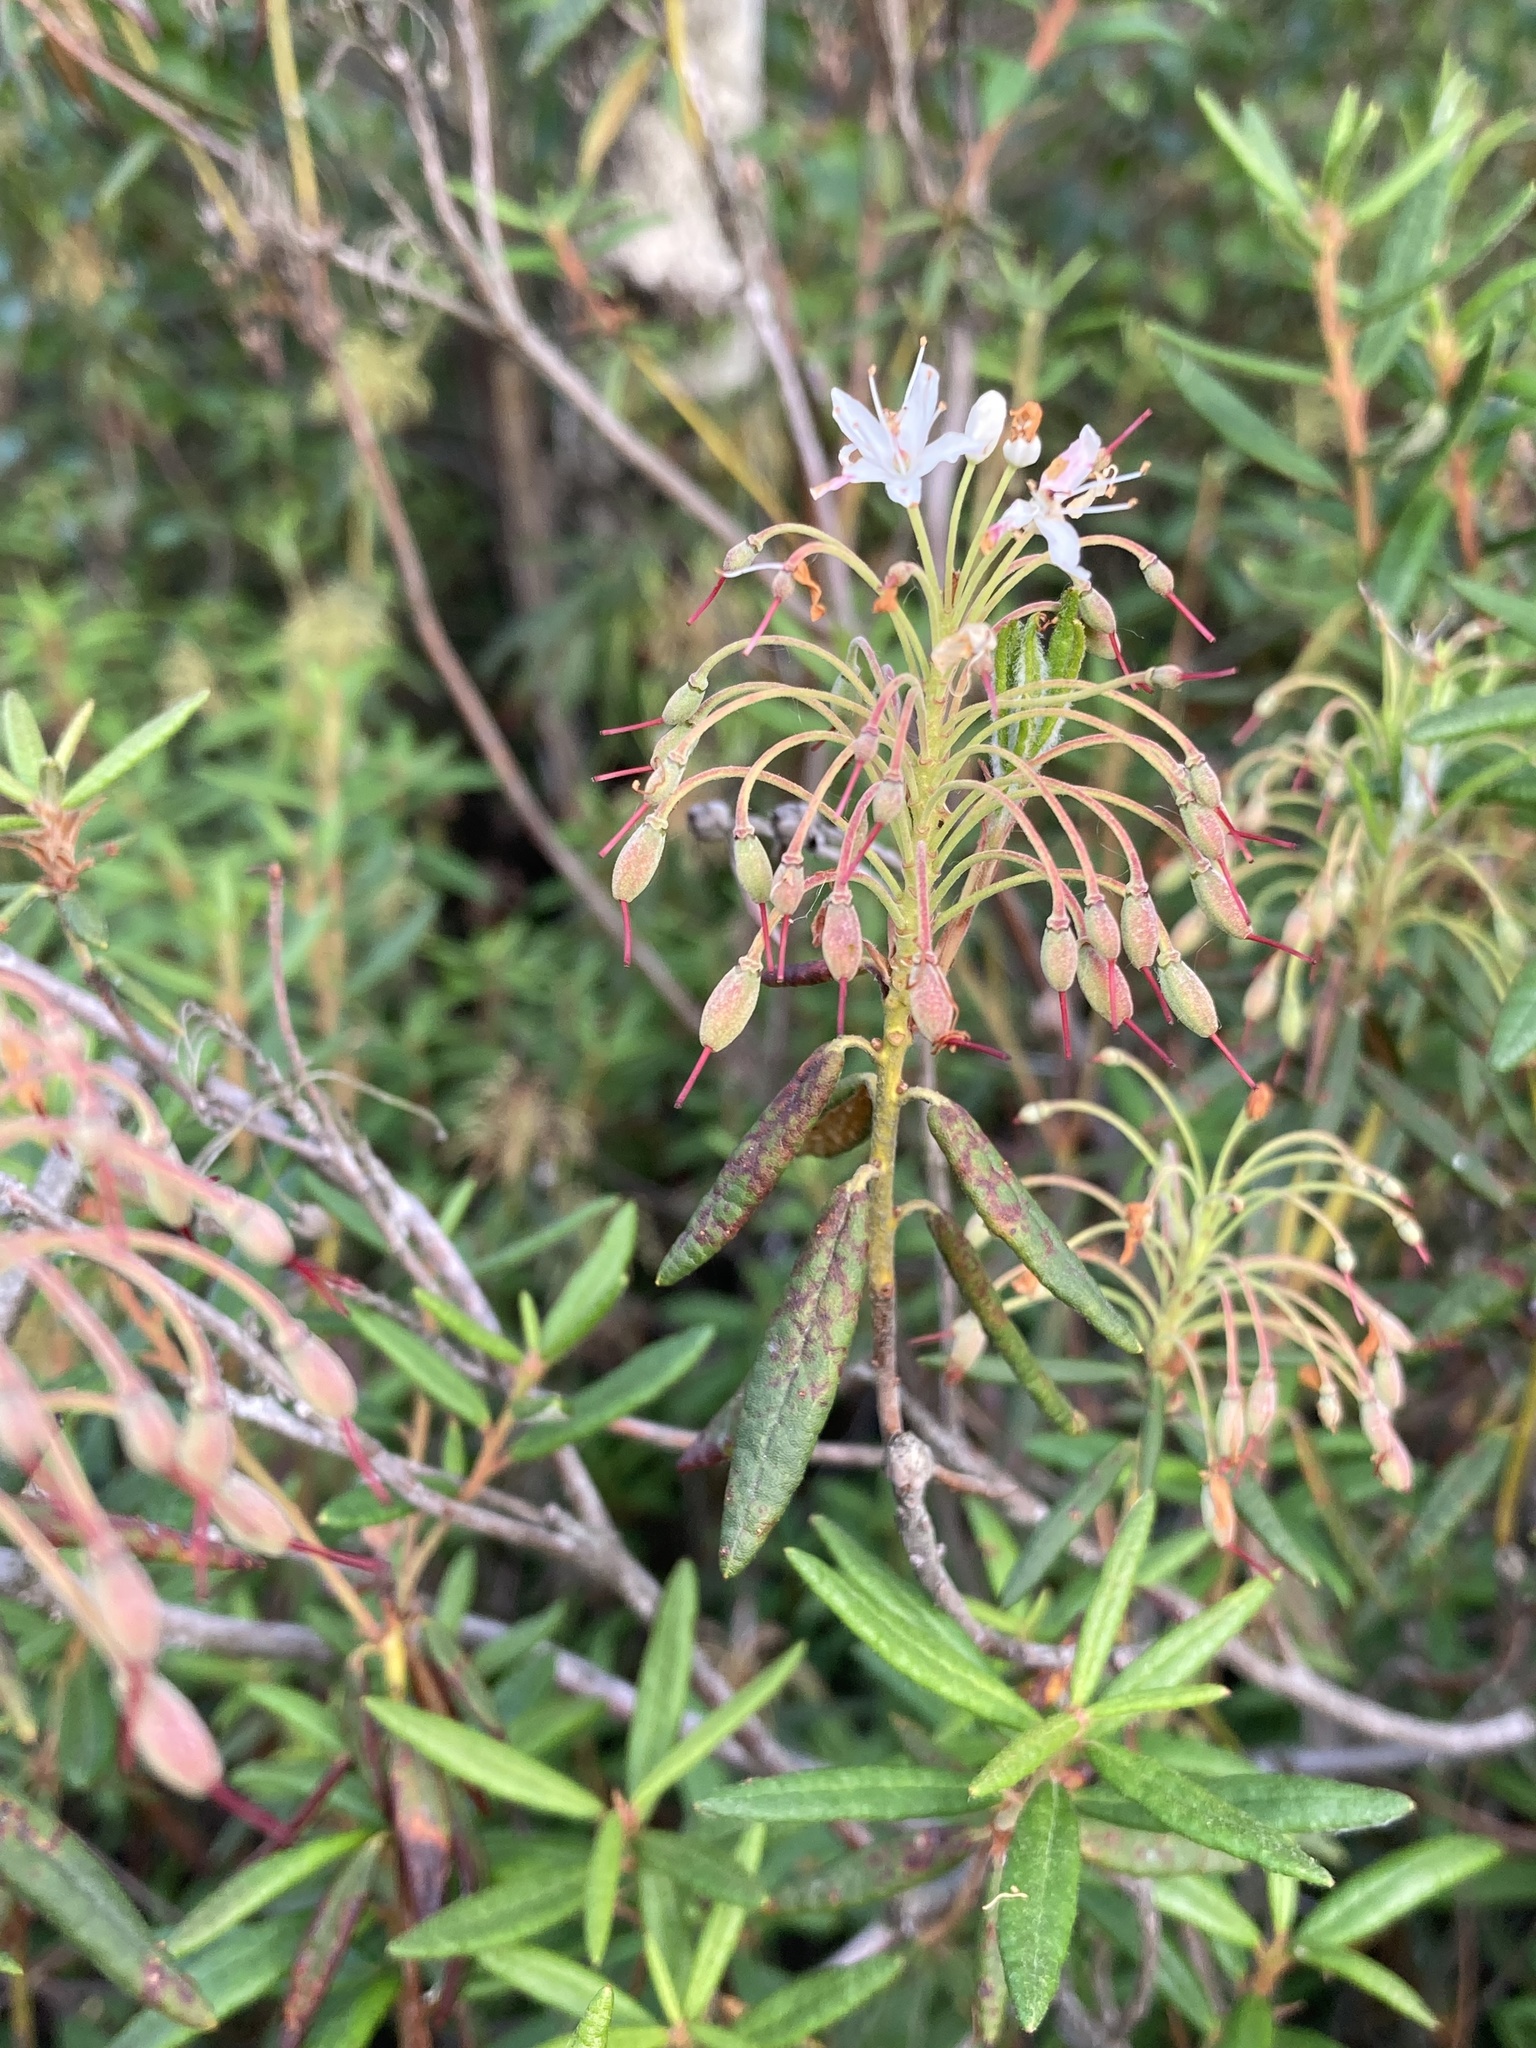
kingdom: Plantae
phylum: Tracheophyta
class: Magnoliopsida
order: Ericales
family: Ericaceae
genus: Rhododendron
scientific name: Rhododendron groenlandicum
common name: Bog labrador tea
